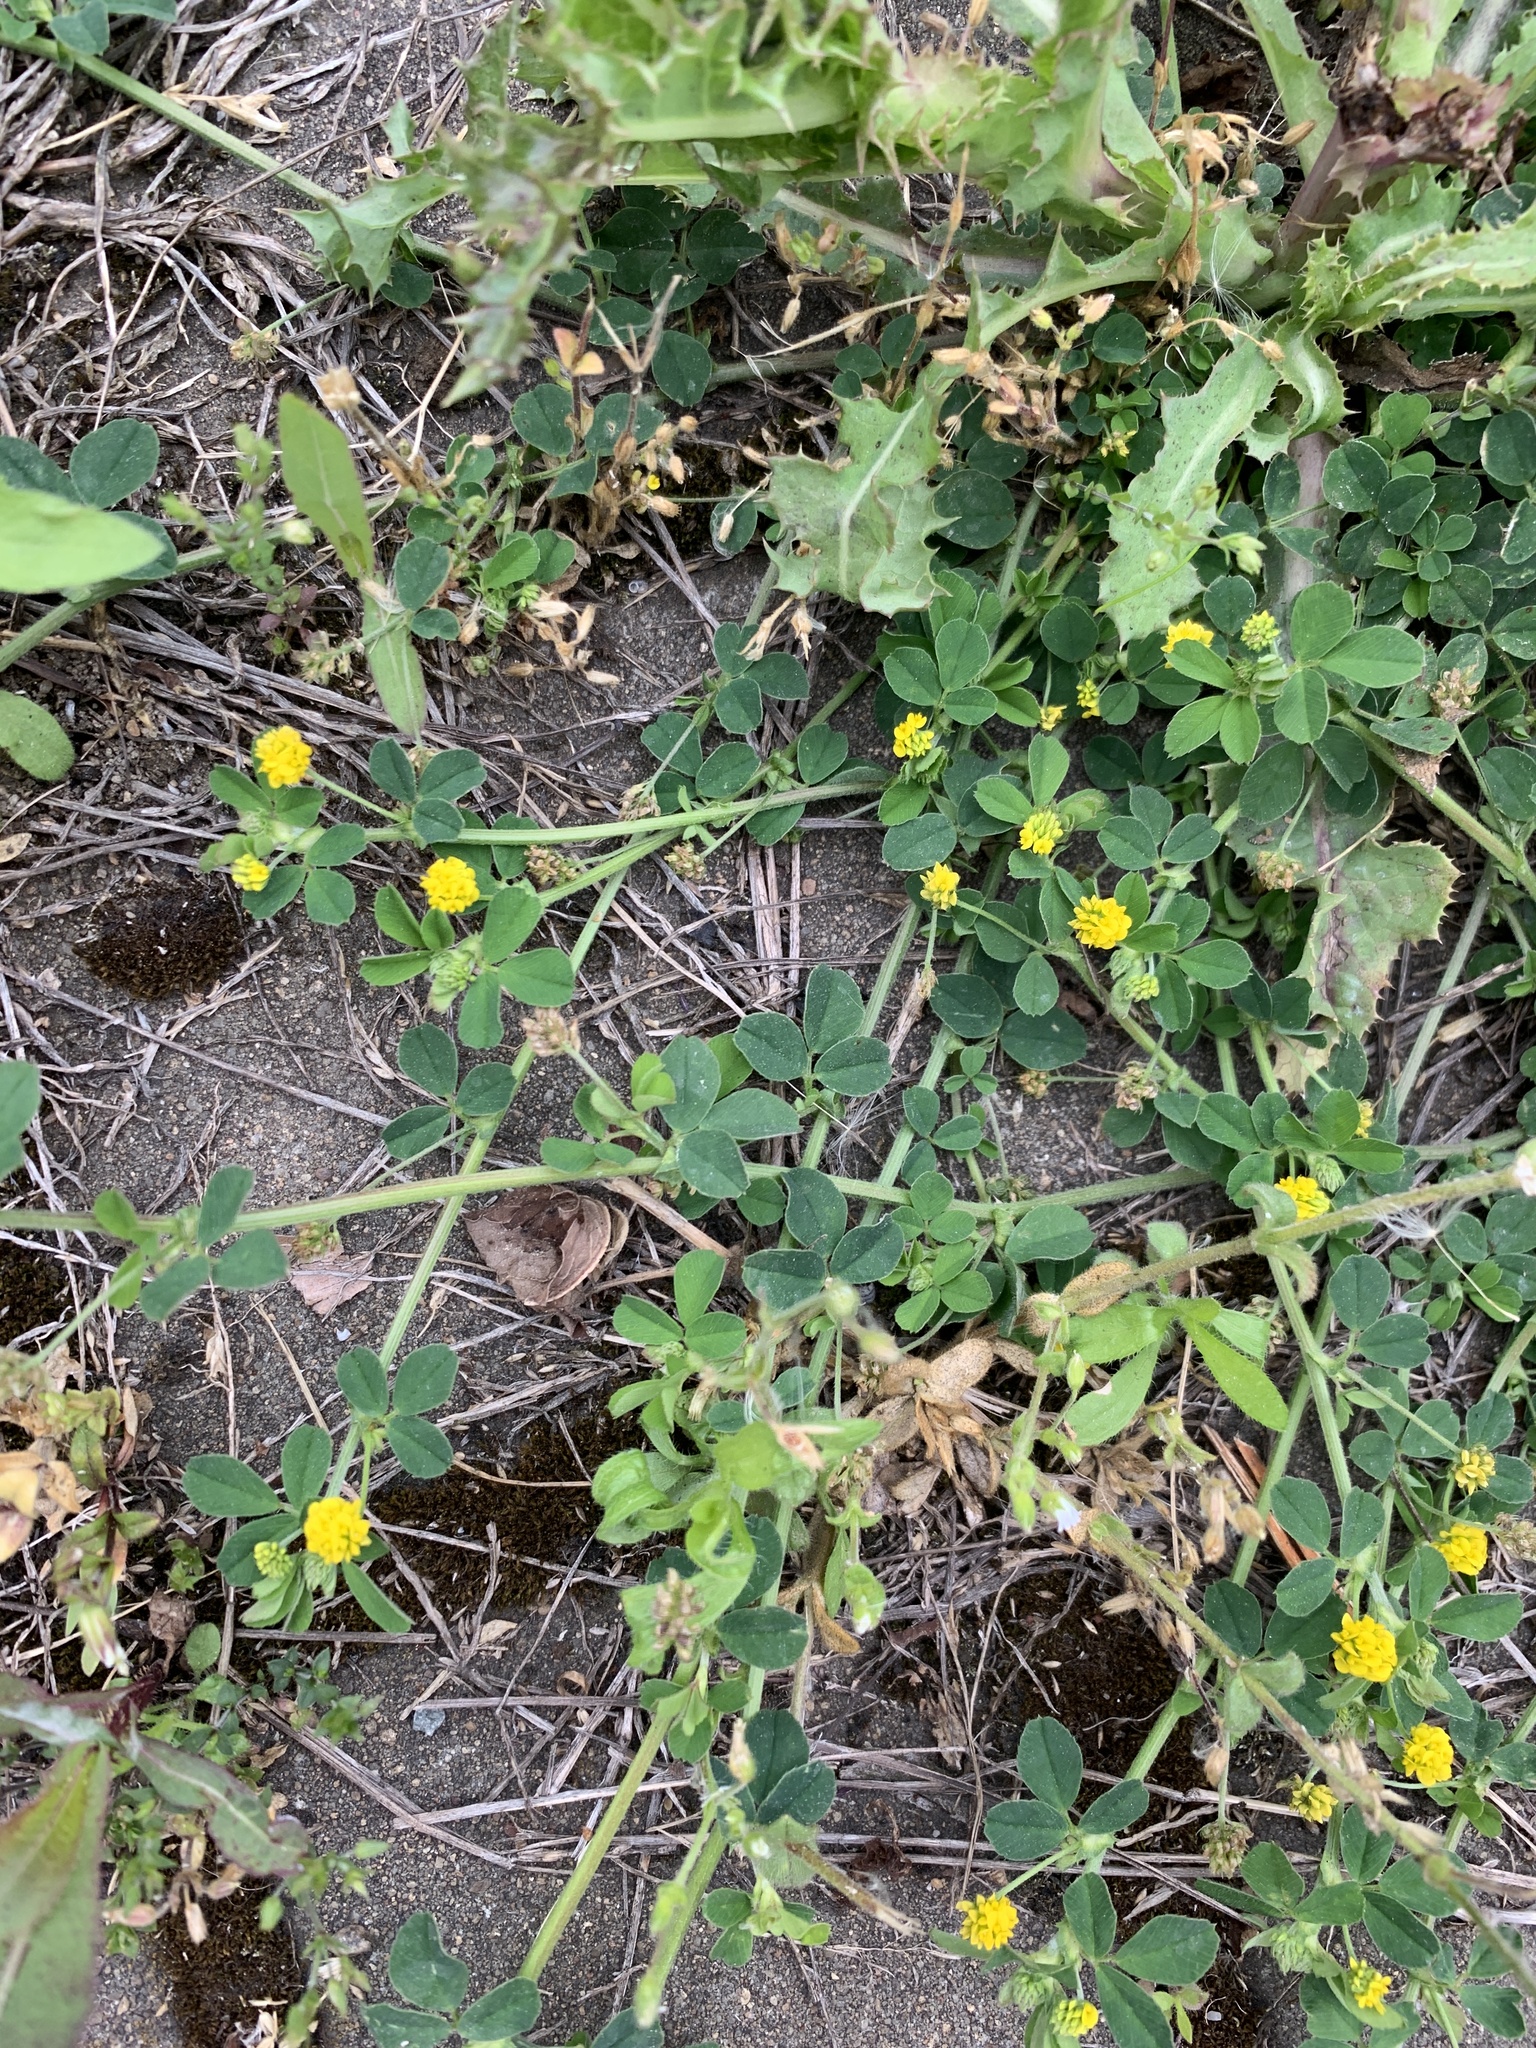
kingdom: Plantae
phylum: Tracheophyta
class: Magnoliopsida
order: Fabales
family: Fabaceae
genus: Medicago
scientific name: Medicago lupulina
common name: Black medick
